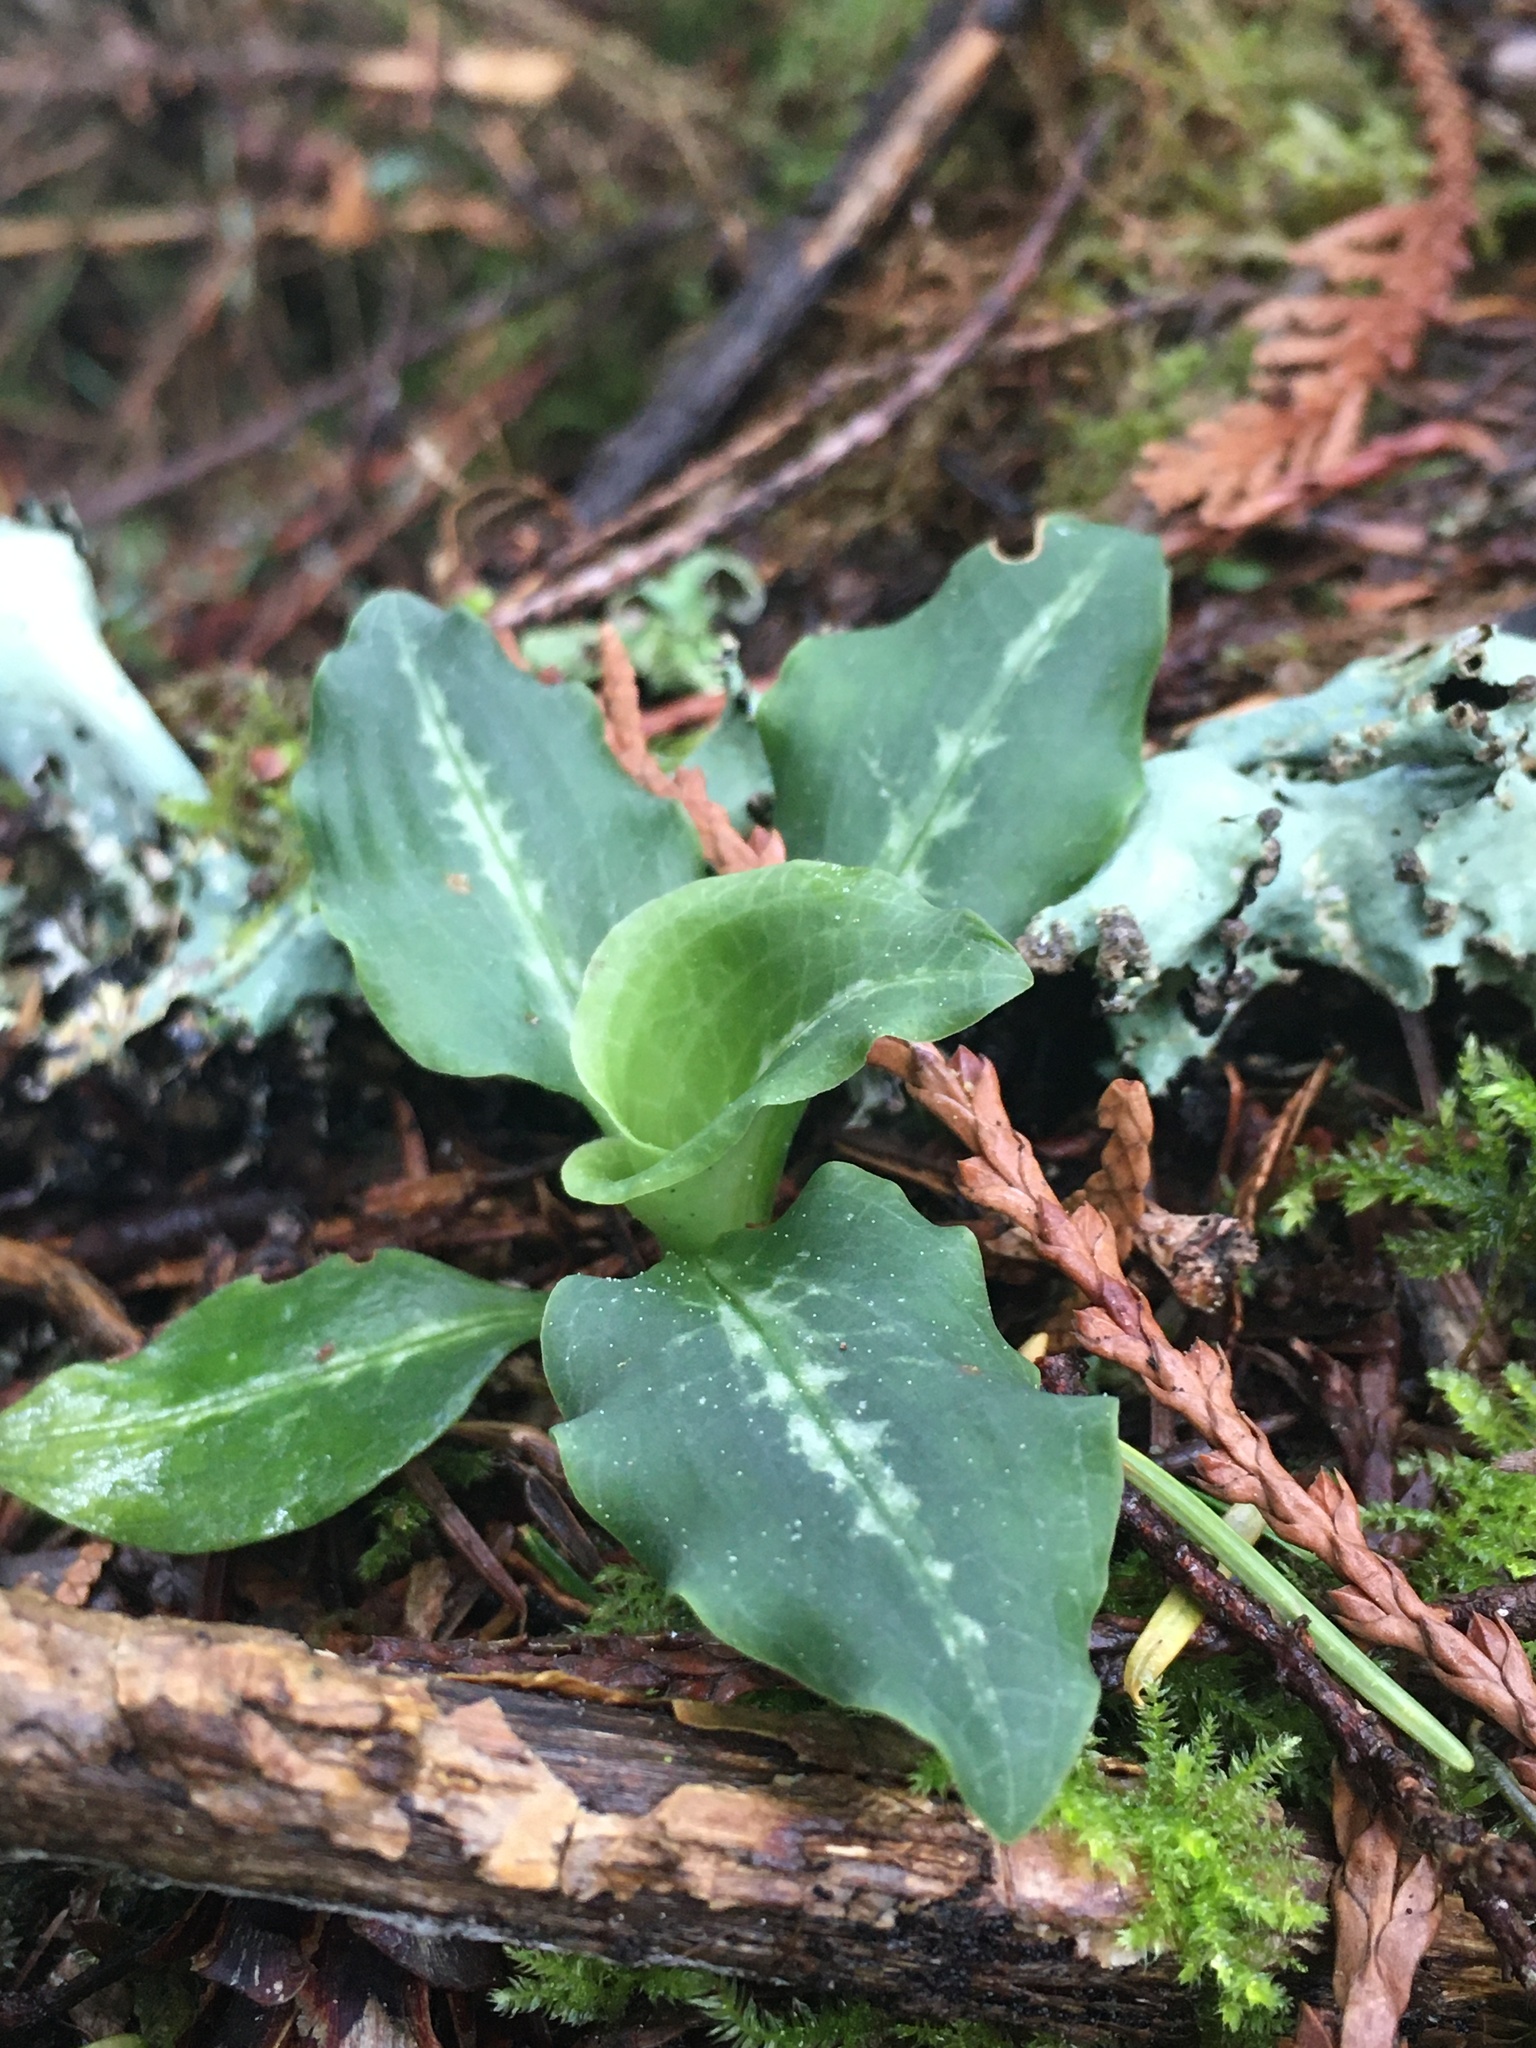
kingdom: Plantae
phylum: Tracheophyta
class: Liliopsida
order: Asparagales
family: Orchidaceae
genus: Goodyera
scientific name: Goodyera oblongifolia
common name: Giant rattlesnake-plantain
